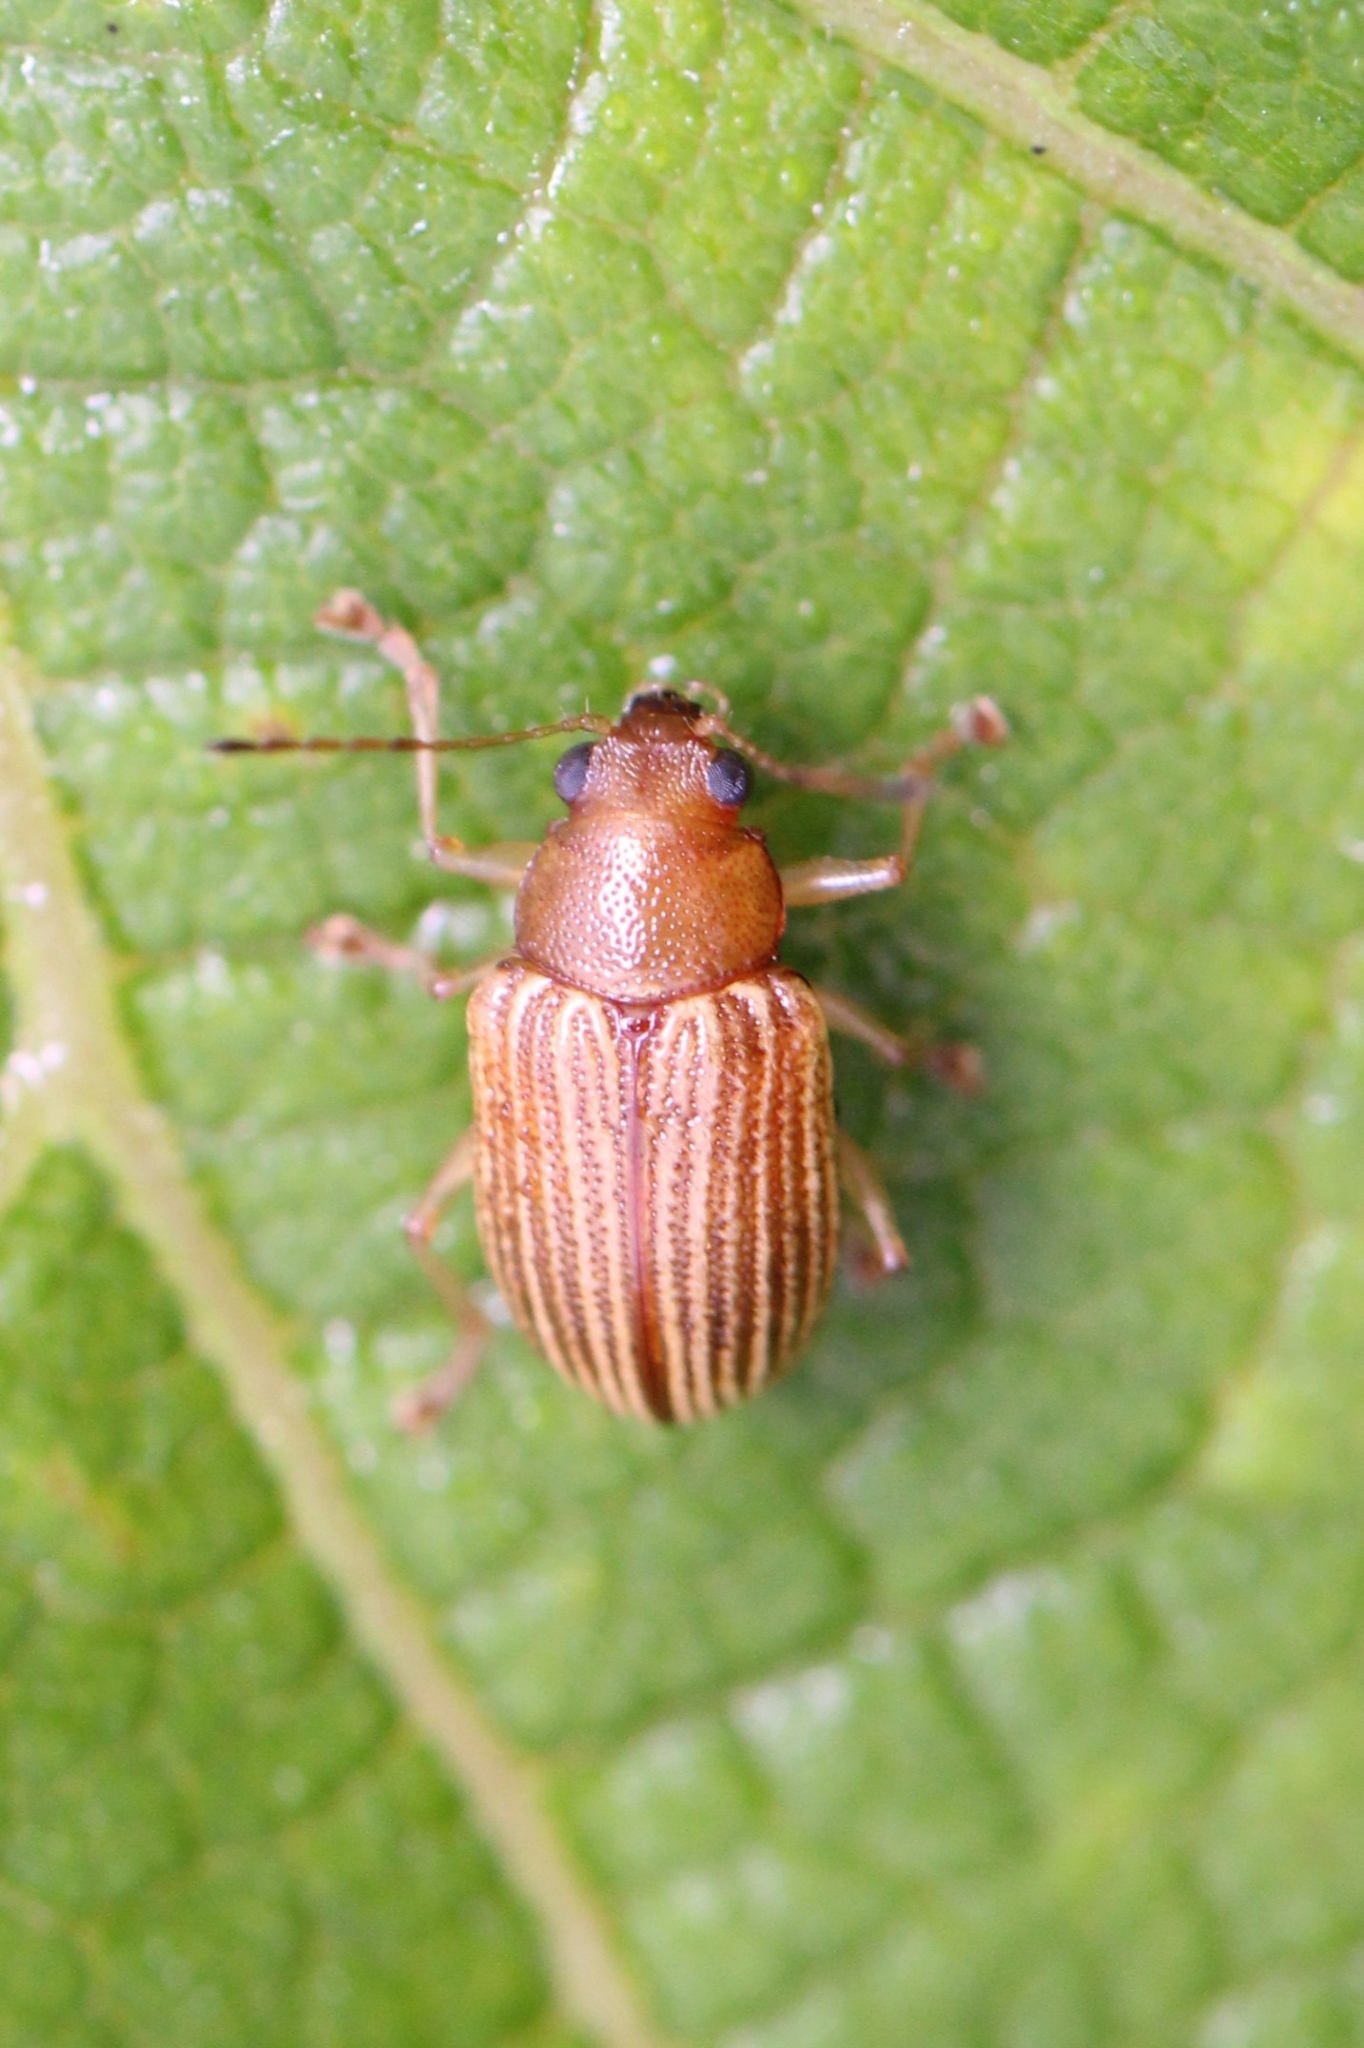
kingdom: Animalia
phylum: Arthropoda
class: Insecta
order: Coleoptera
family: Chrysomelidae
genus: Colaspis
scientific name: Colaspis brunnea
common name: Grape colaspis
